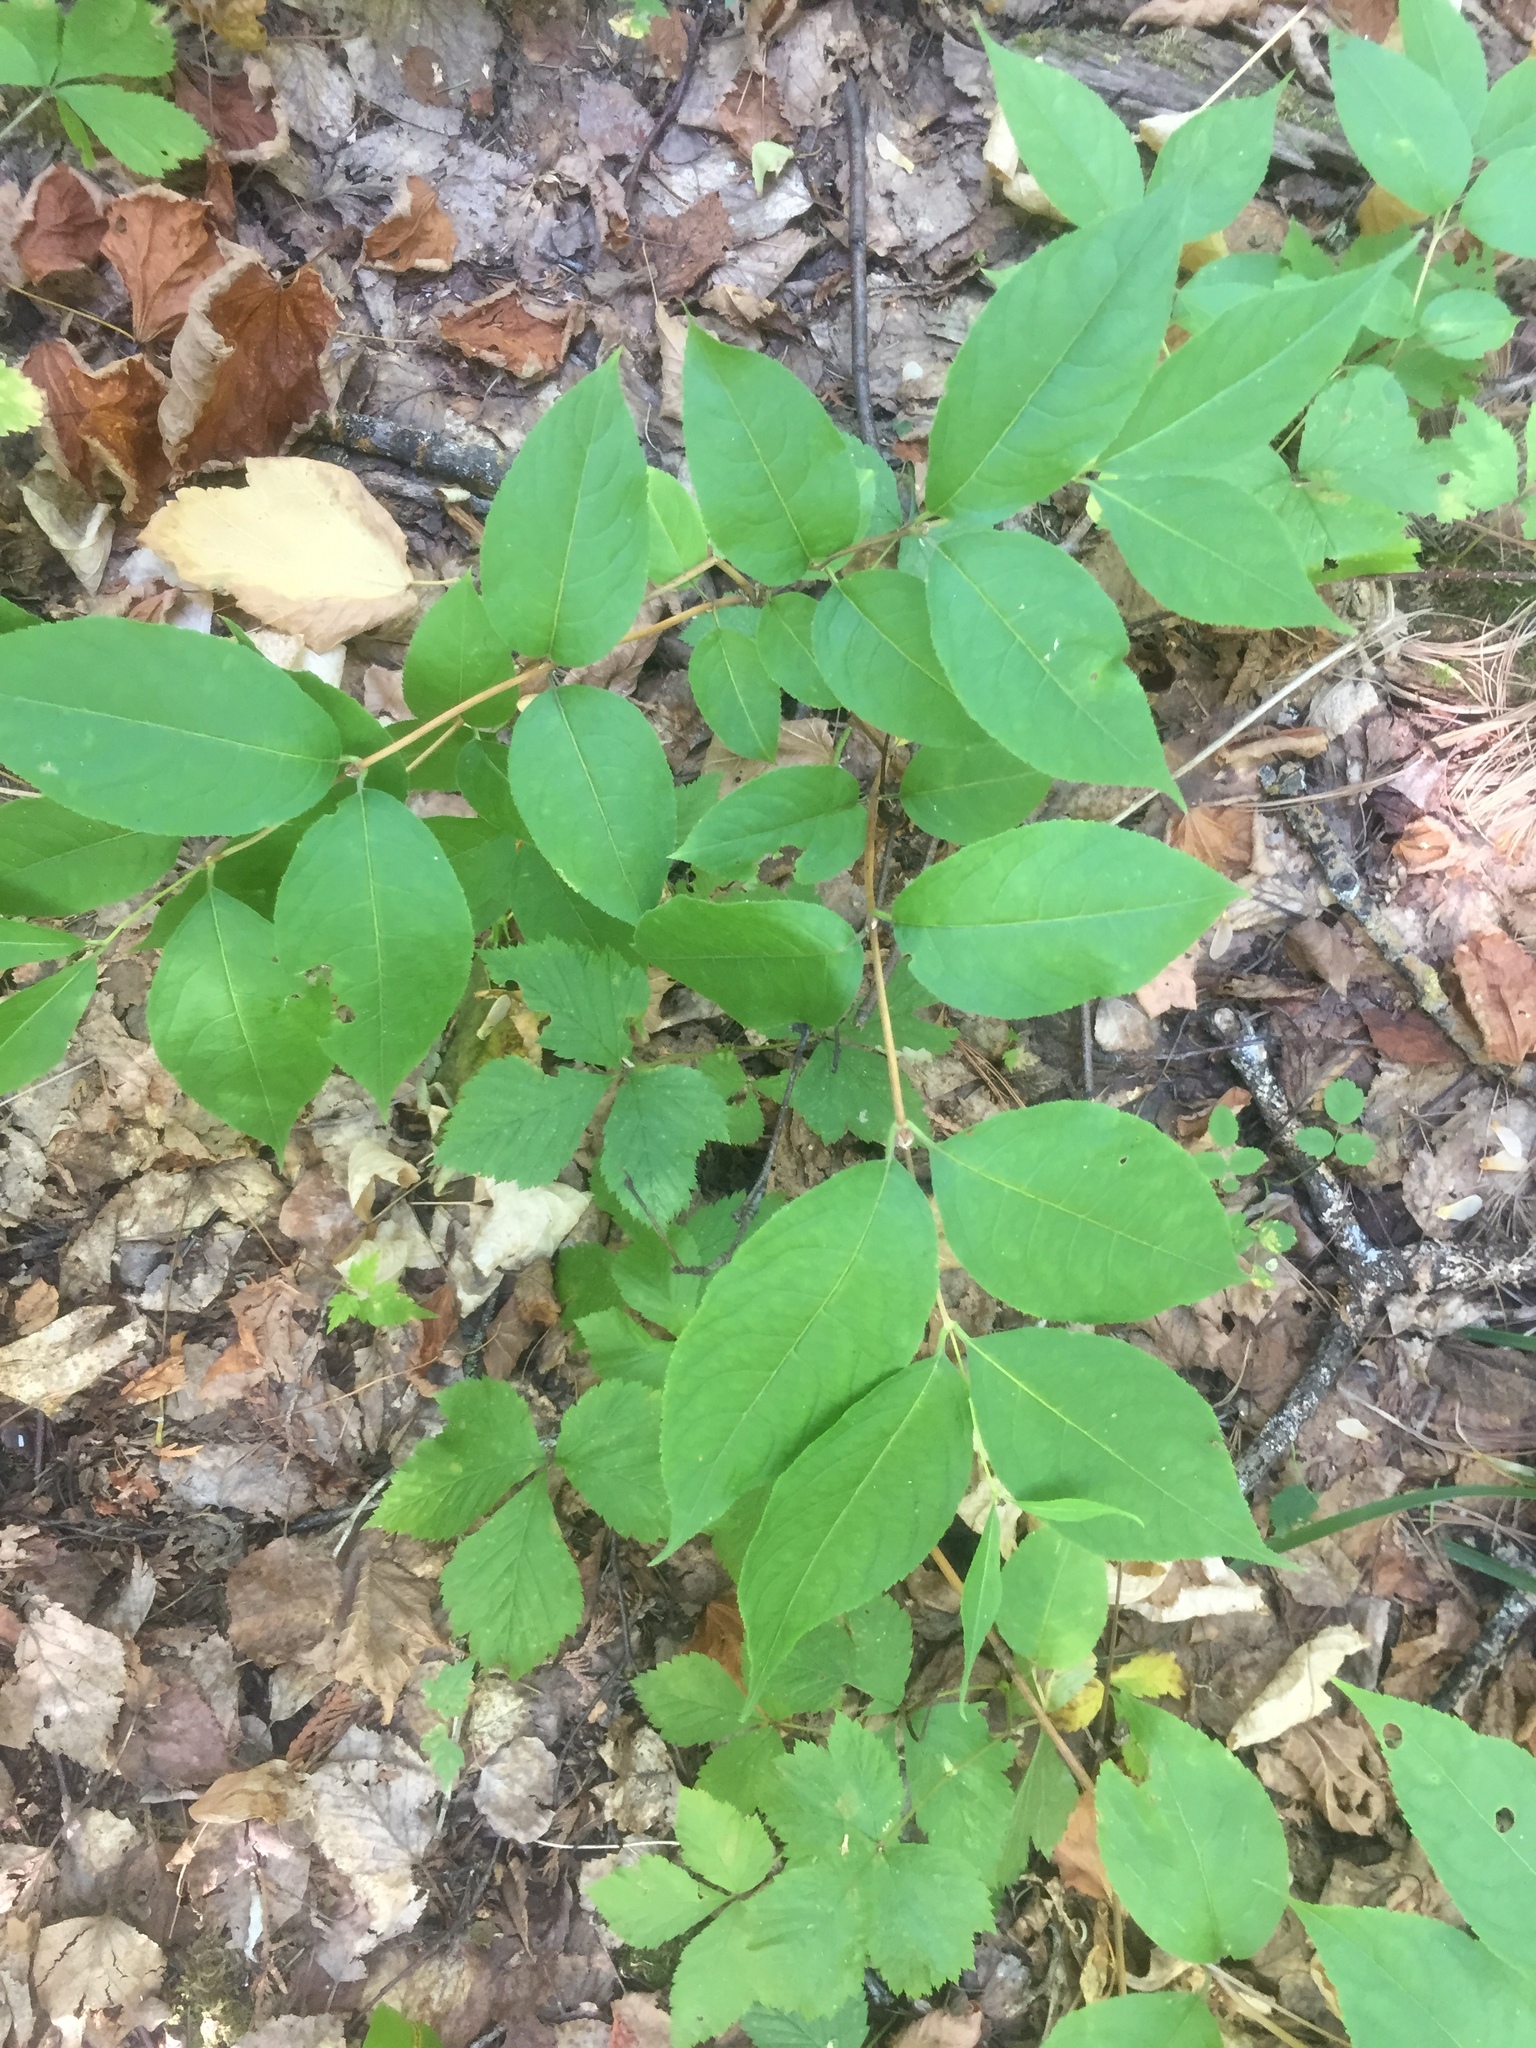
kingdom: Plantae
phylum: Tracheophyta
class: Magnoliopsida
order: Dipsacales
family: Caprifoliaceae
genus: Diervilla
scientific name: Diervilla lonicera
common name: Bush-honeysuckle
